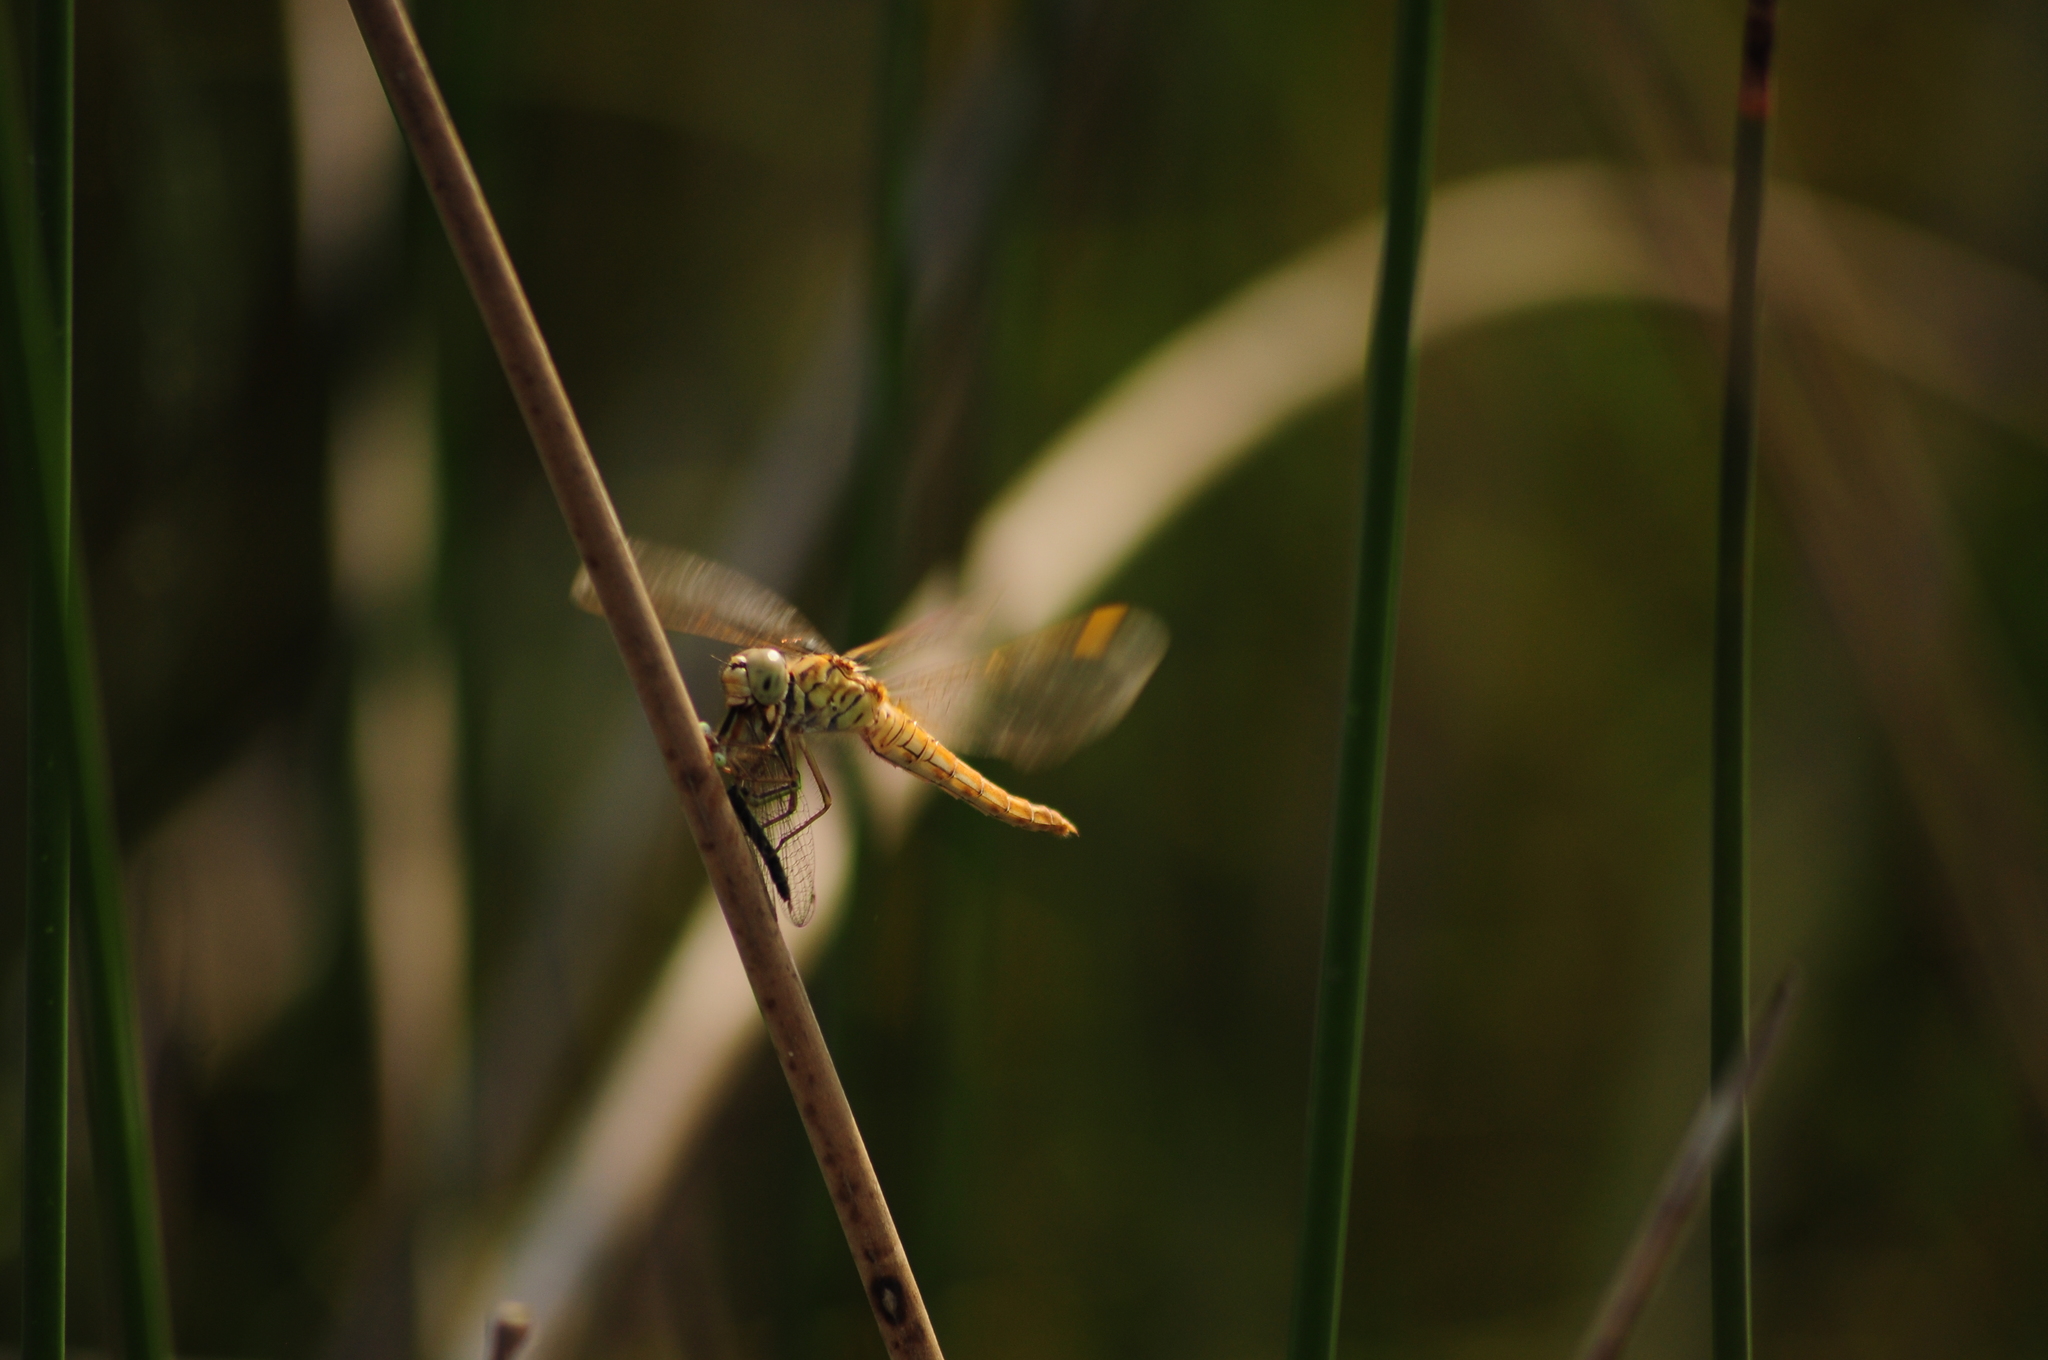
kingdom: Animalia
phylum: Arthropoda
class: Insecta
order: Odonata
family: Libellulidae
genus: Crocothemis
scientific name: Crocothemis servilia
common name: Scarlet skimmer
